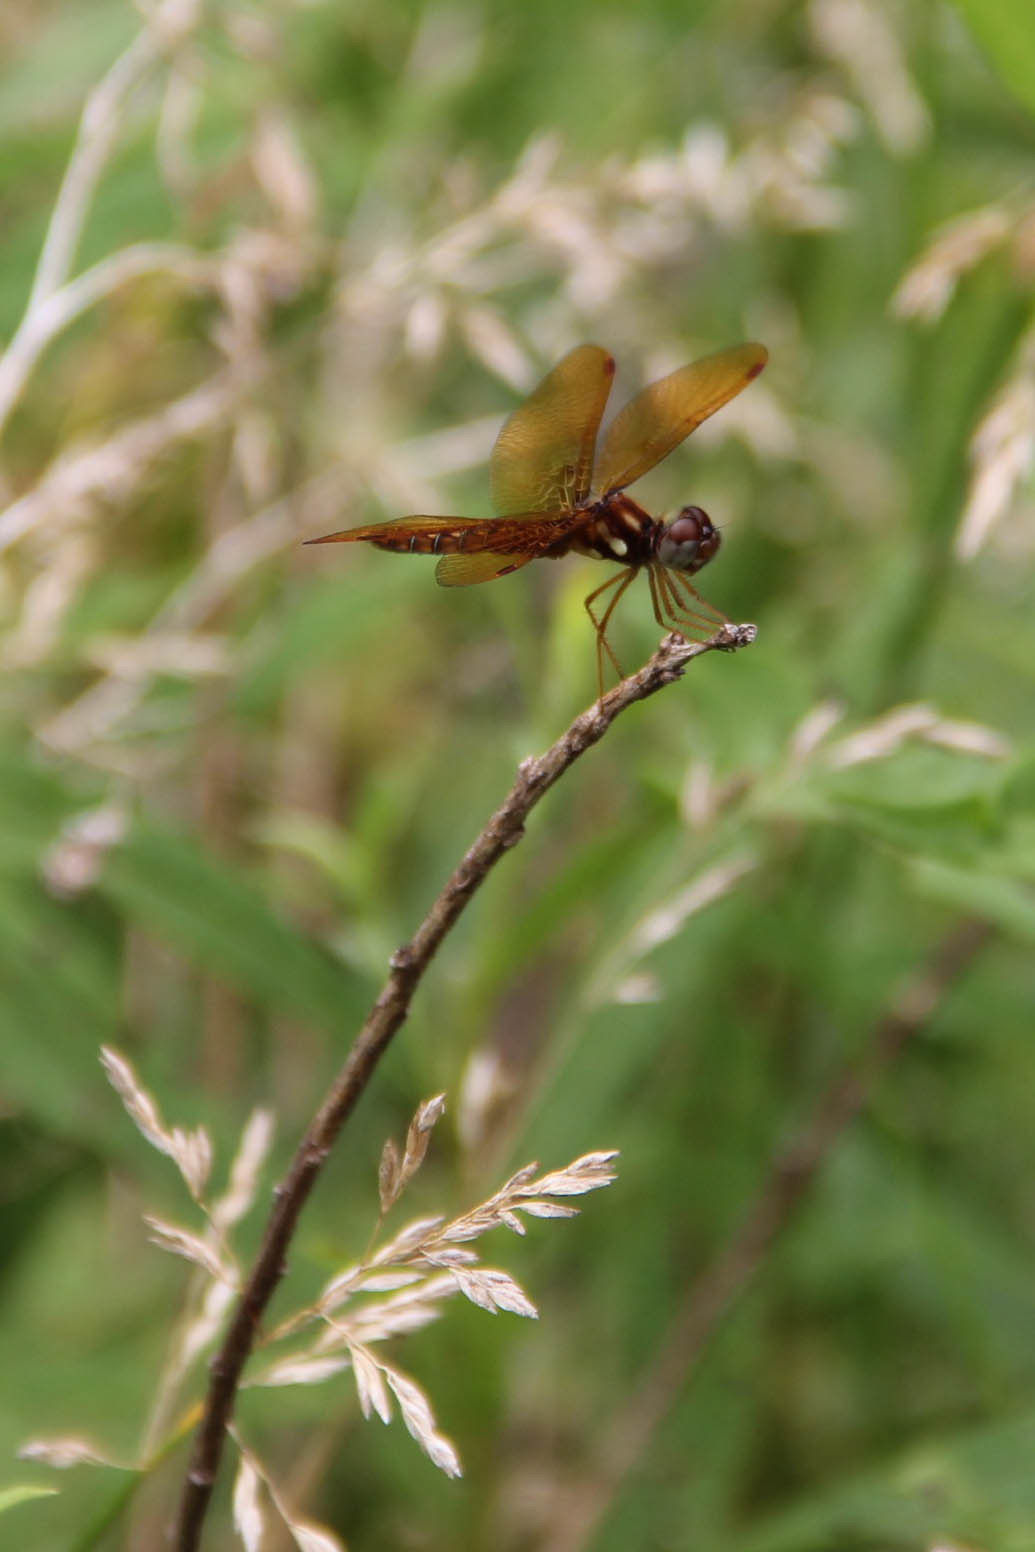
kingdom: Animalia
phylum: Arthropoda
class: Insecta
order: Odonata
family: Libellulidae
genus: Perithemis
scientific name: Perithemis tenera
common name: Eastern amberwing
